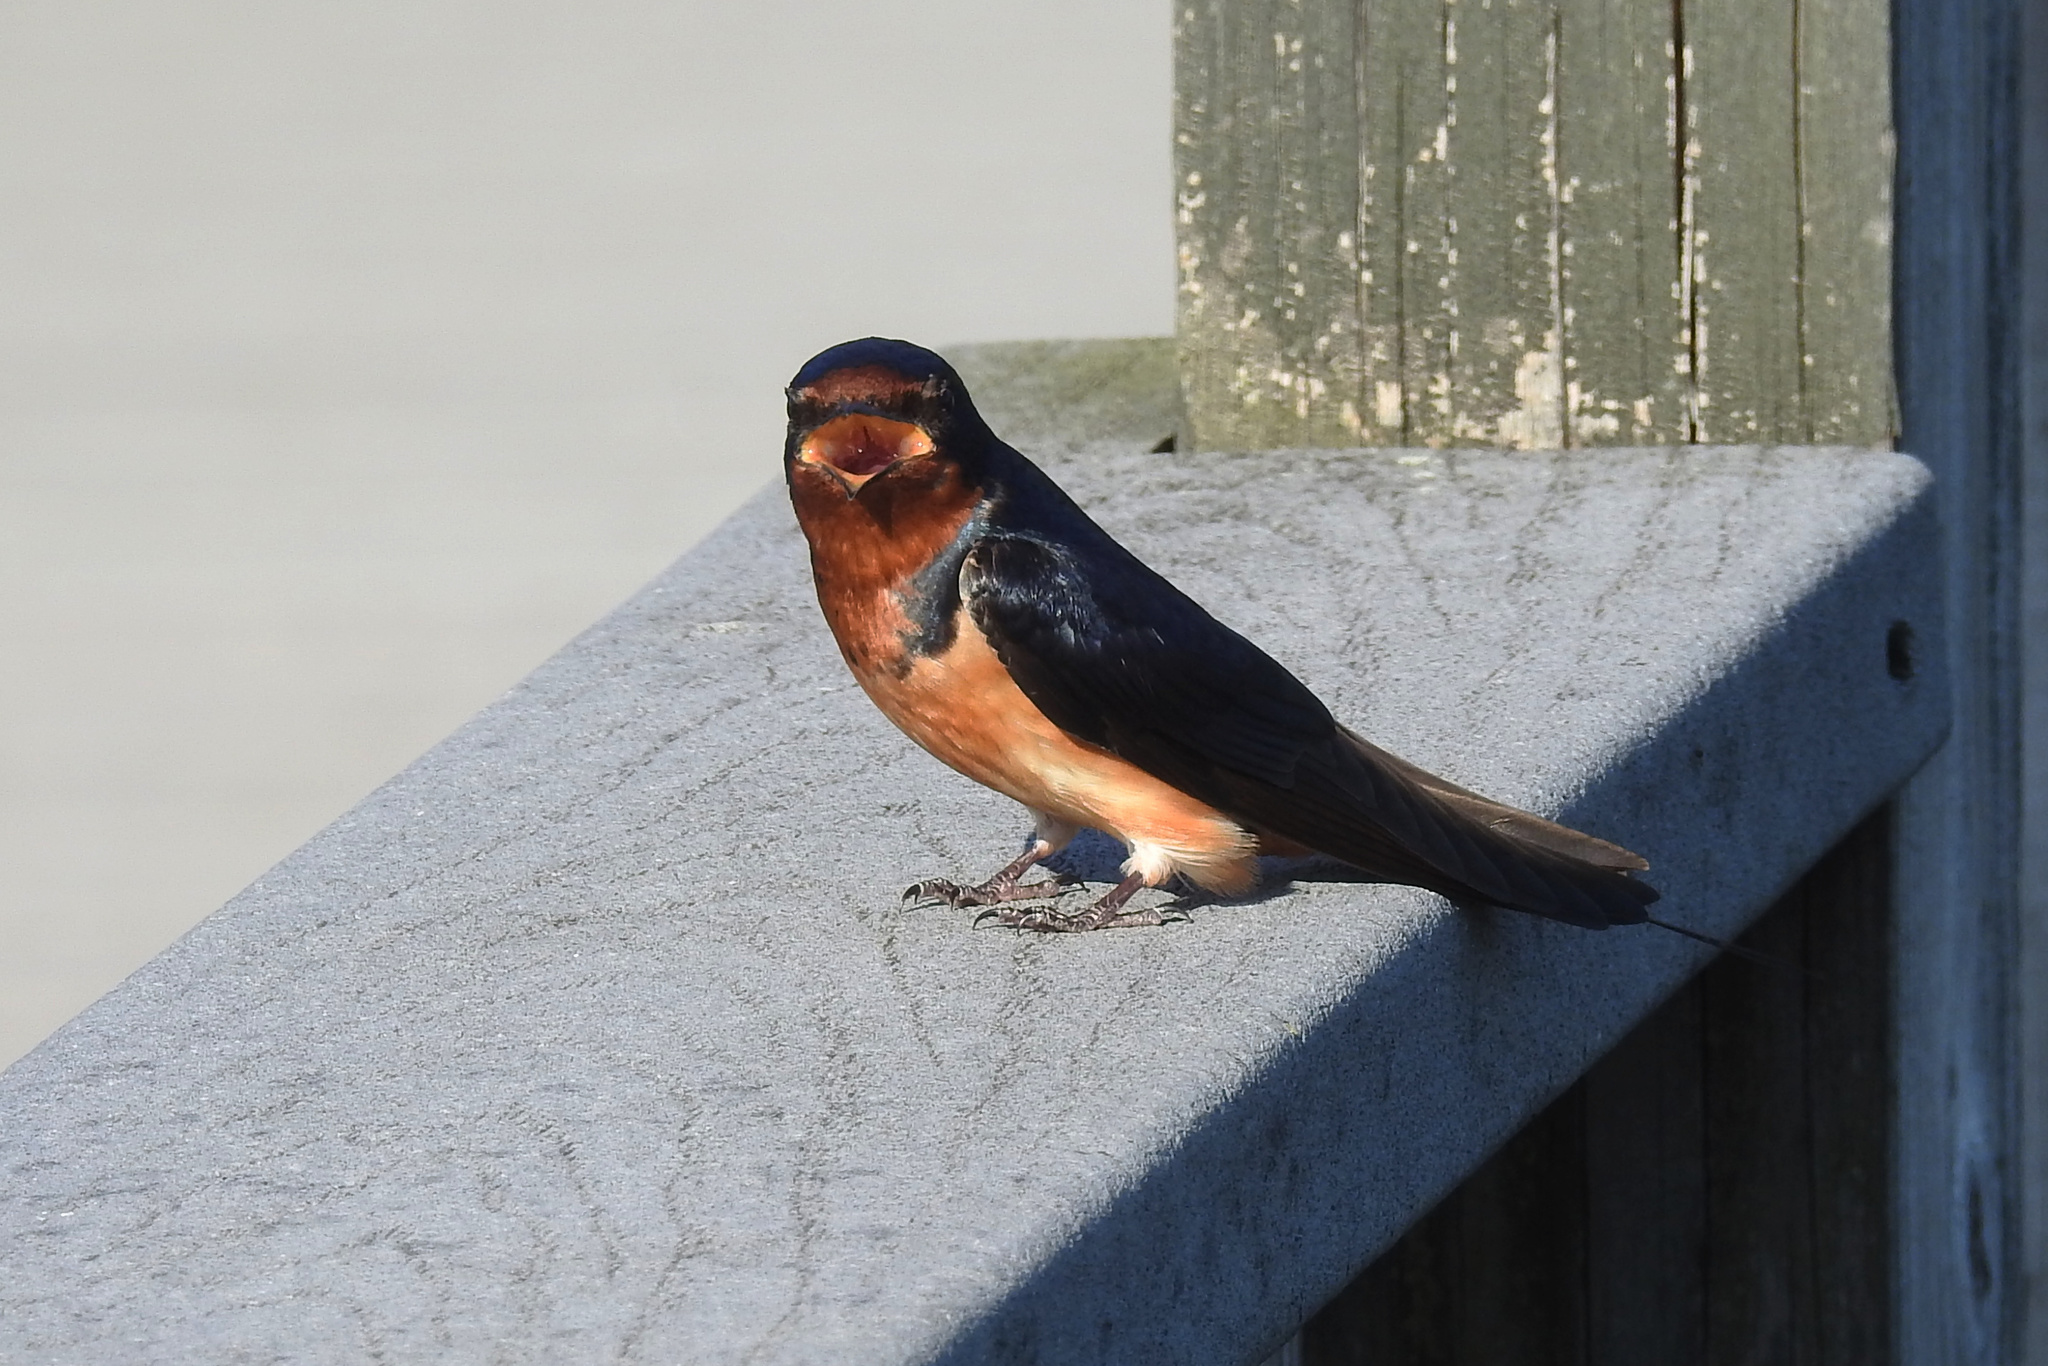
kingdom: Animalia
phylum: Chordata
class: Aves
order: Passeriformes
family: Hirundinidae
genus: Hirundo
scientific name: Hirundo rustica
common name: Barn swallow
